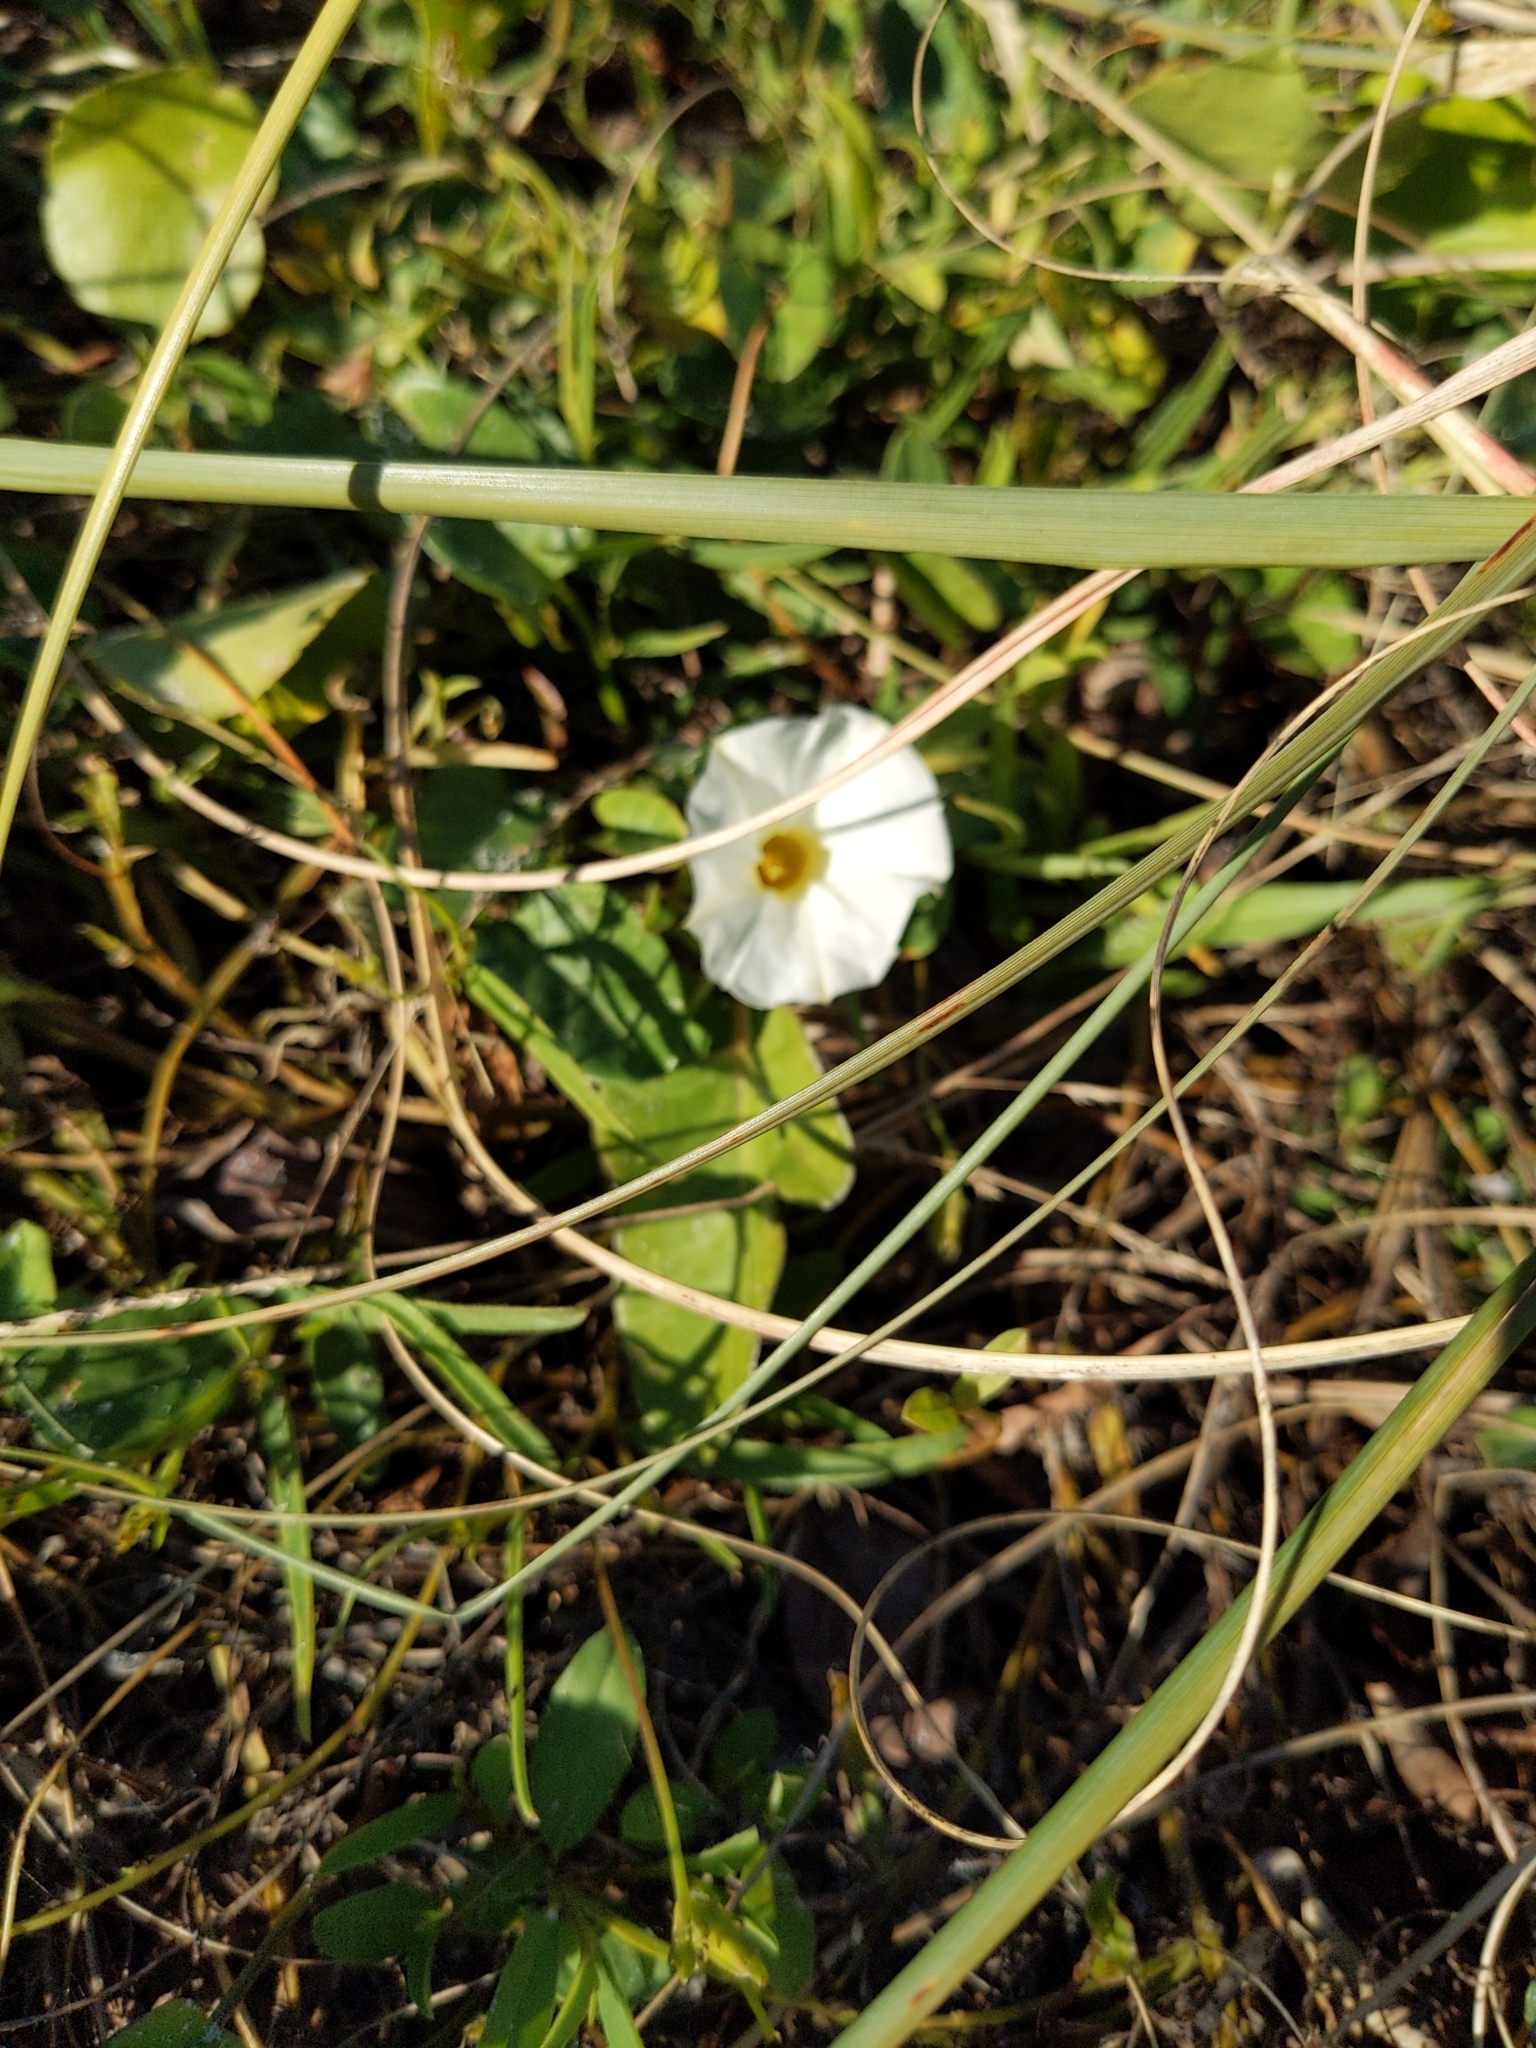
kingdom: Plantae
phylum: Tracheophyta
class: Magnoliopsida
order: Solanales
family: Convolvulaceae
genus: Ipomoea
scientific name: Ipomoea imperati
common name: Fiddle-leaf morning-glory
